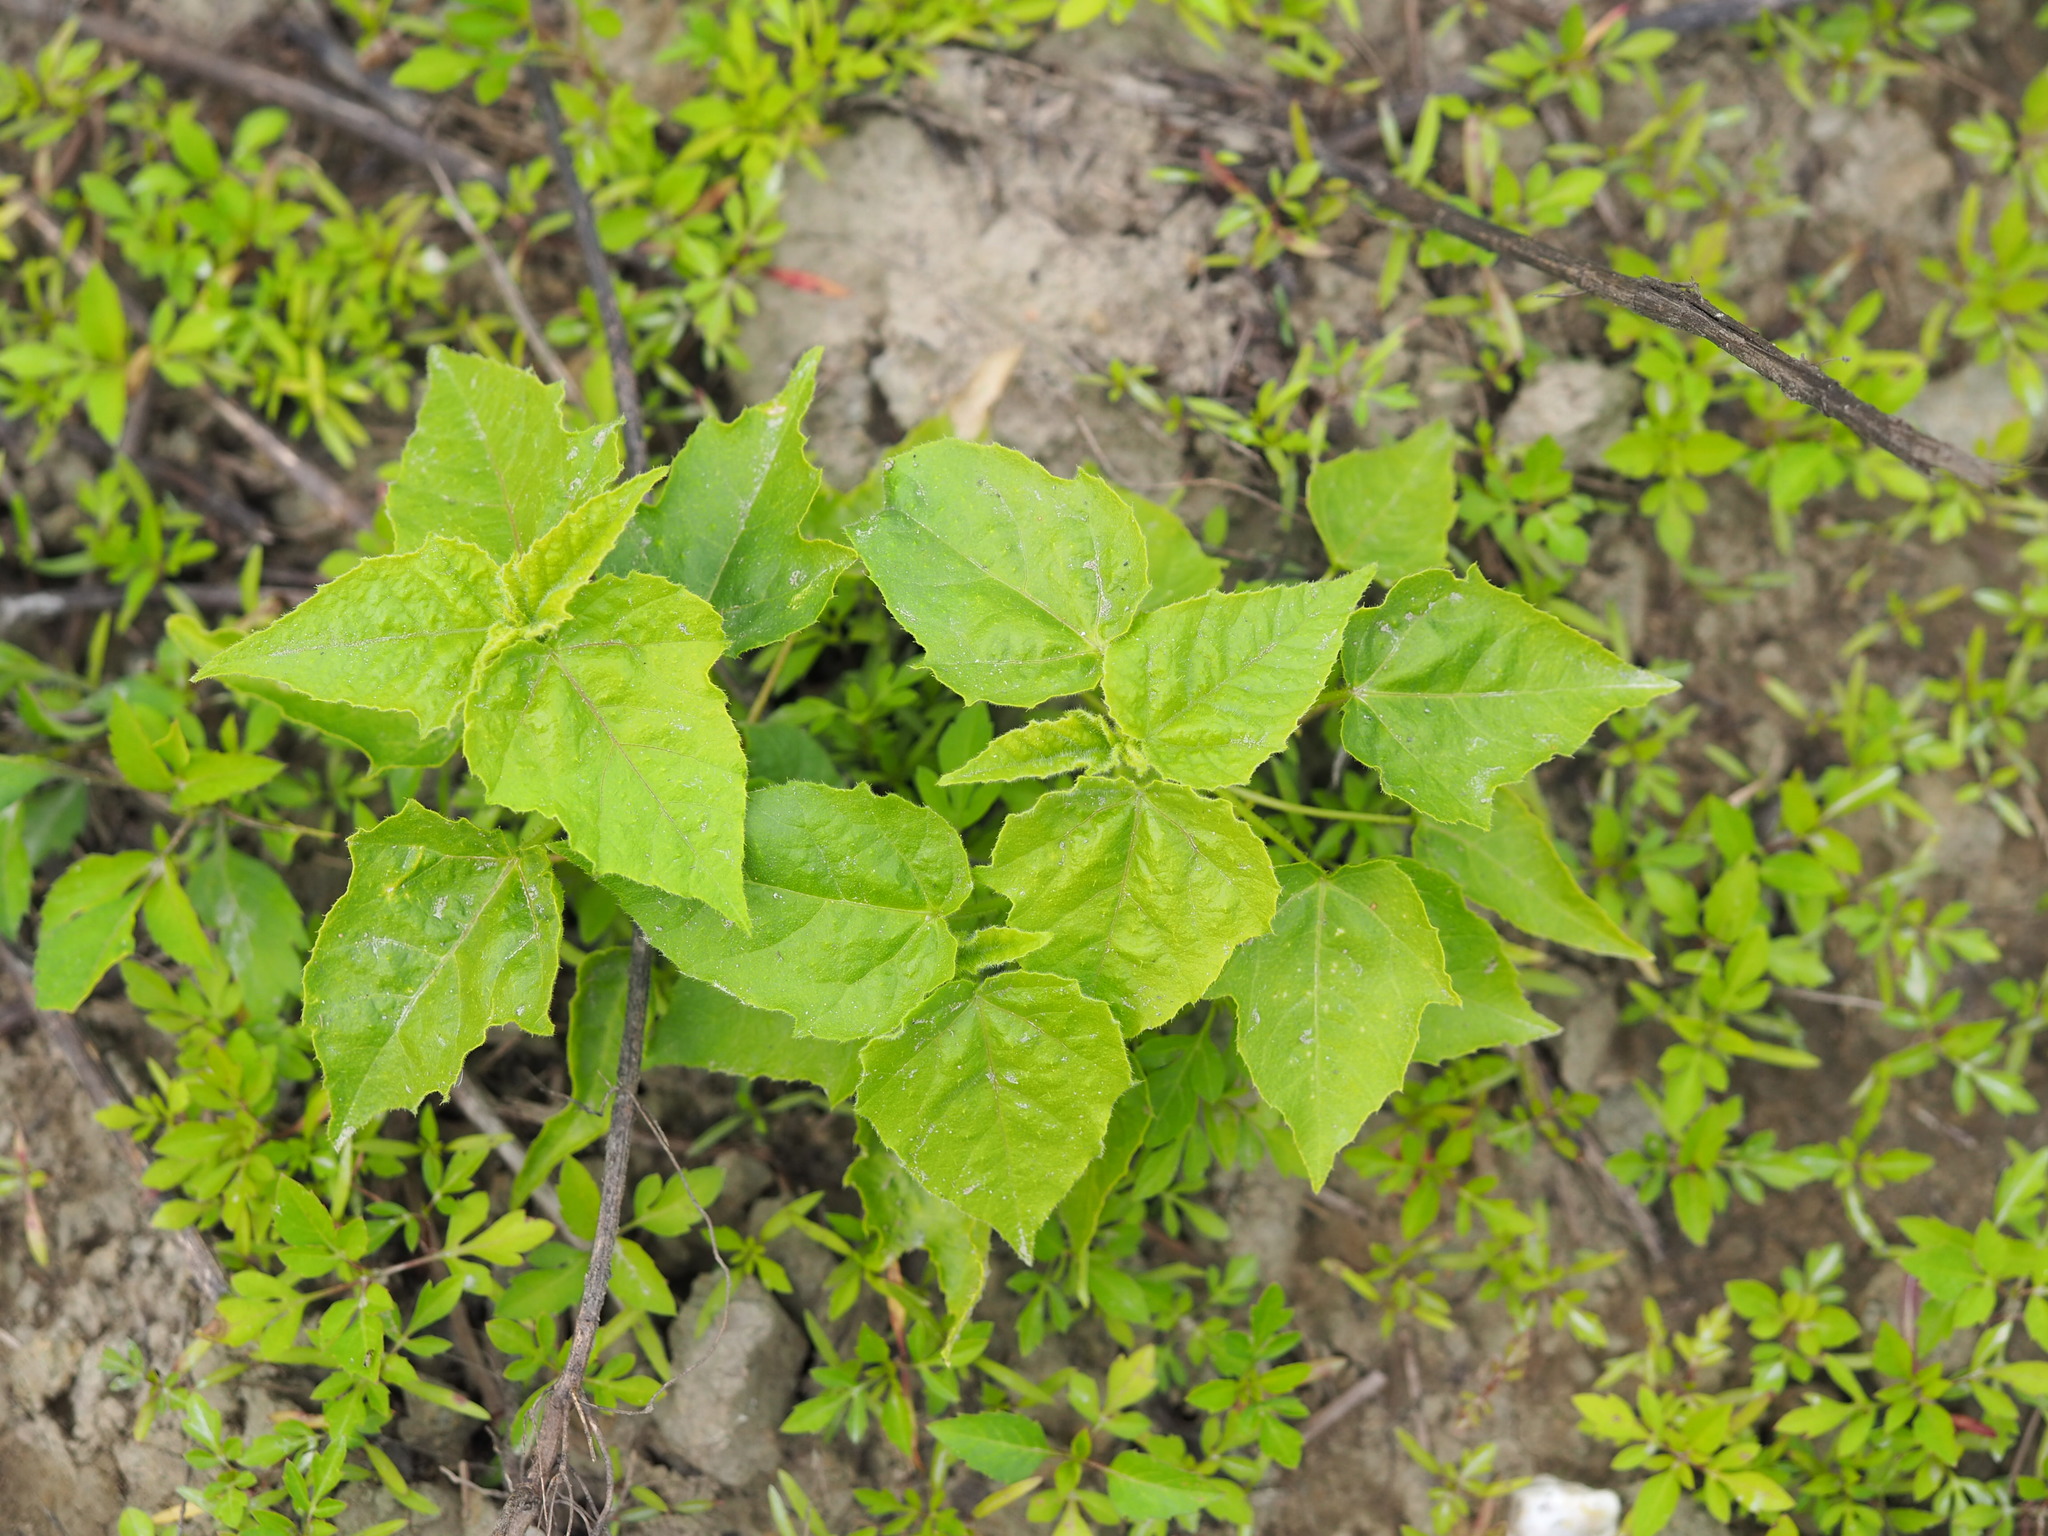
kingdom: Plantae
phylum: Tracheophyta
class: Magnoliopsida
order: Malpighiales
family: Passifloraceae
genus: Passiflora
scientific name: Passiflora vesicaria
